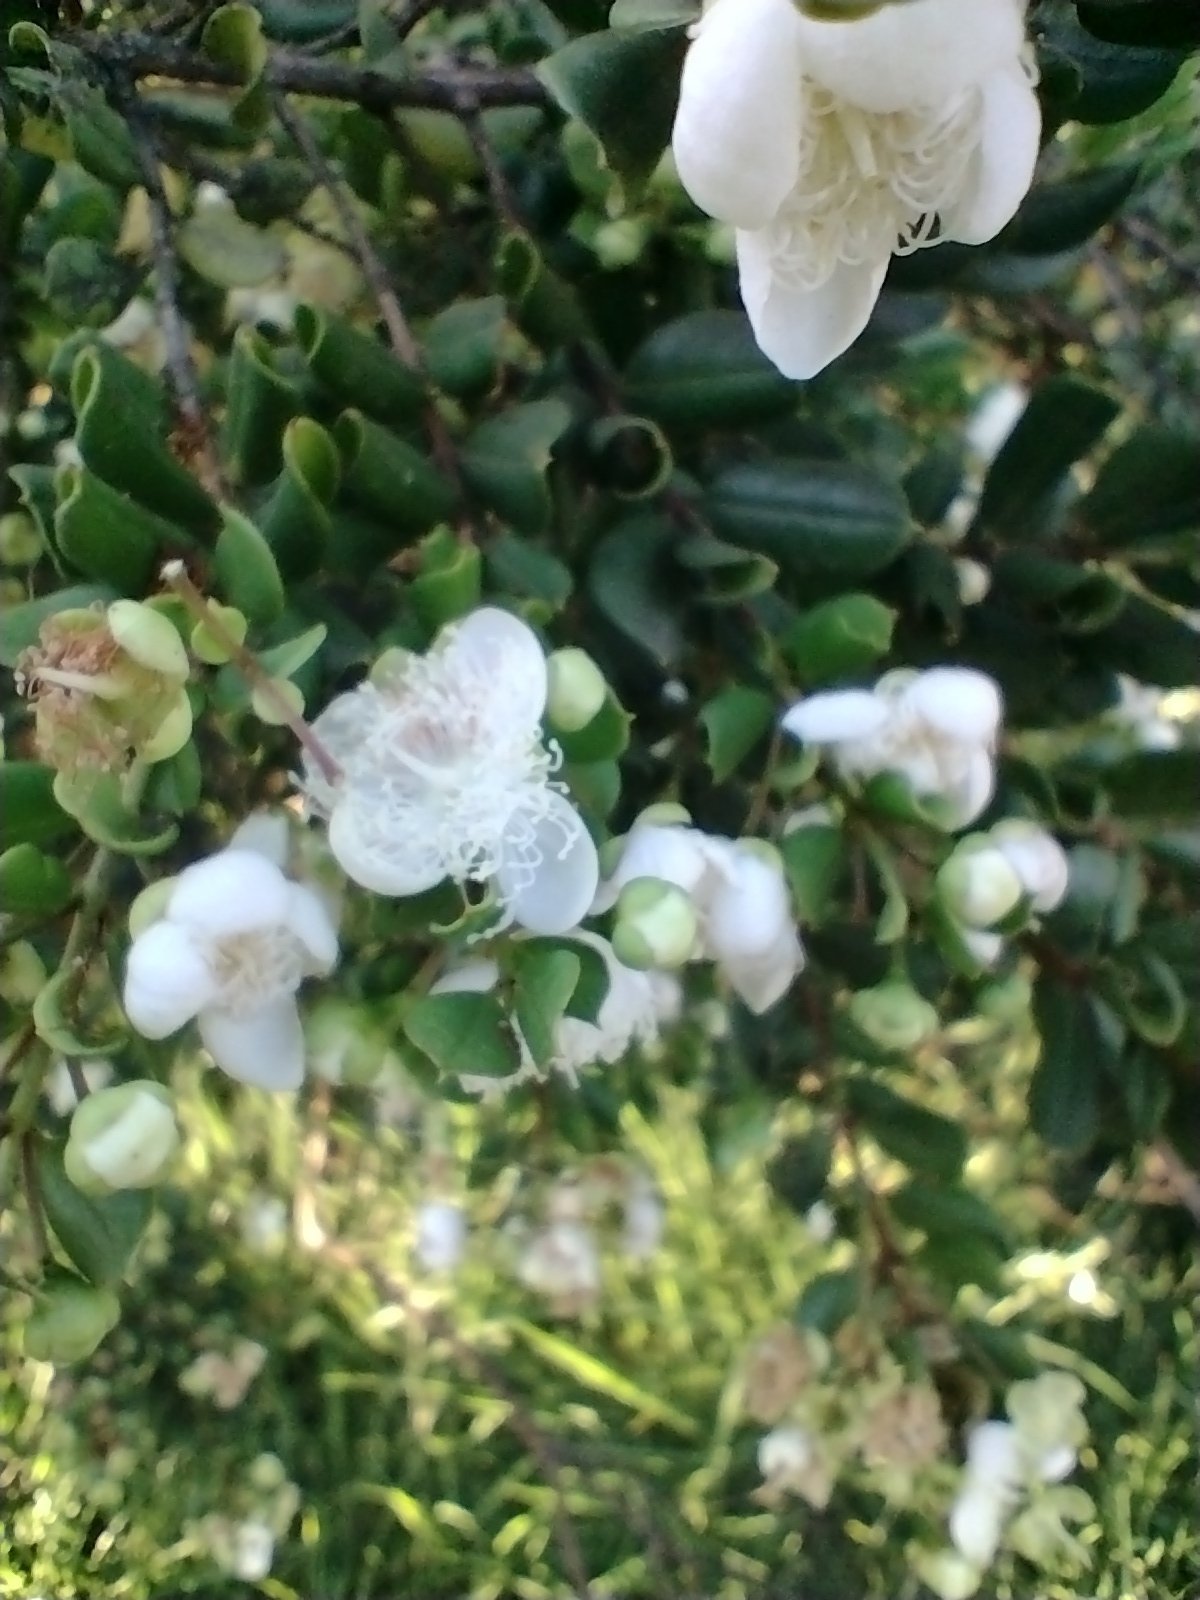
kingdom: Plantae
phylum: Tracheophyta
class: Magnoliopsida
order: Myrtales
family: Myrtaceae
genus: Luma
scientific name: Luma apiculata
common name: Chilean myrtle
